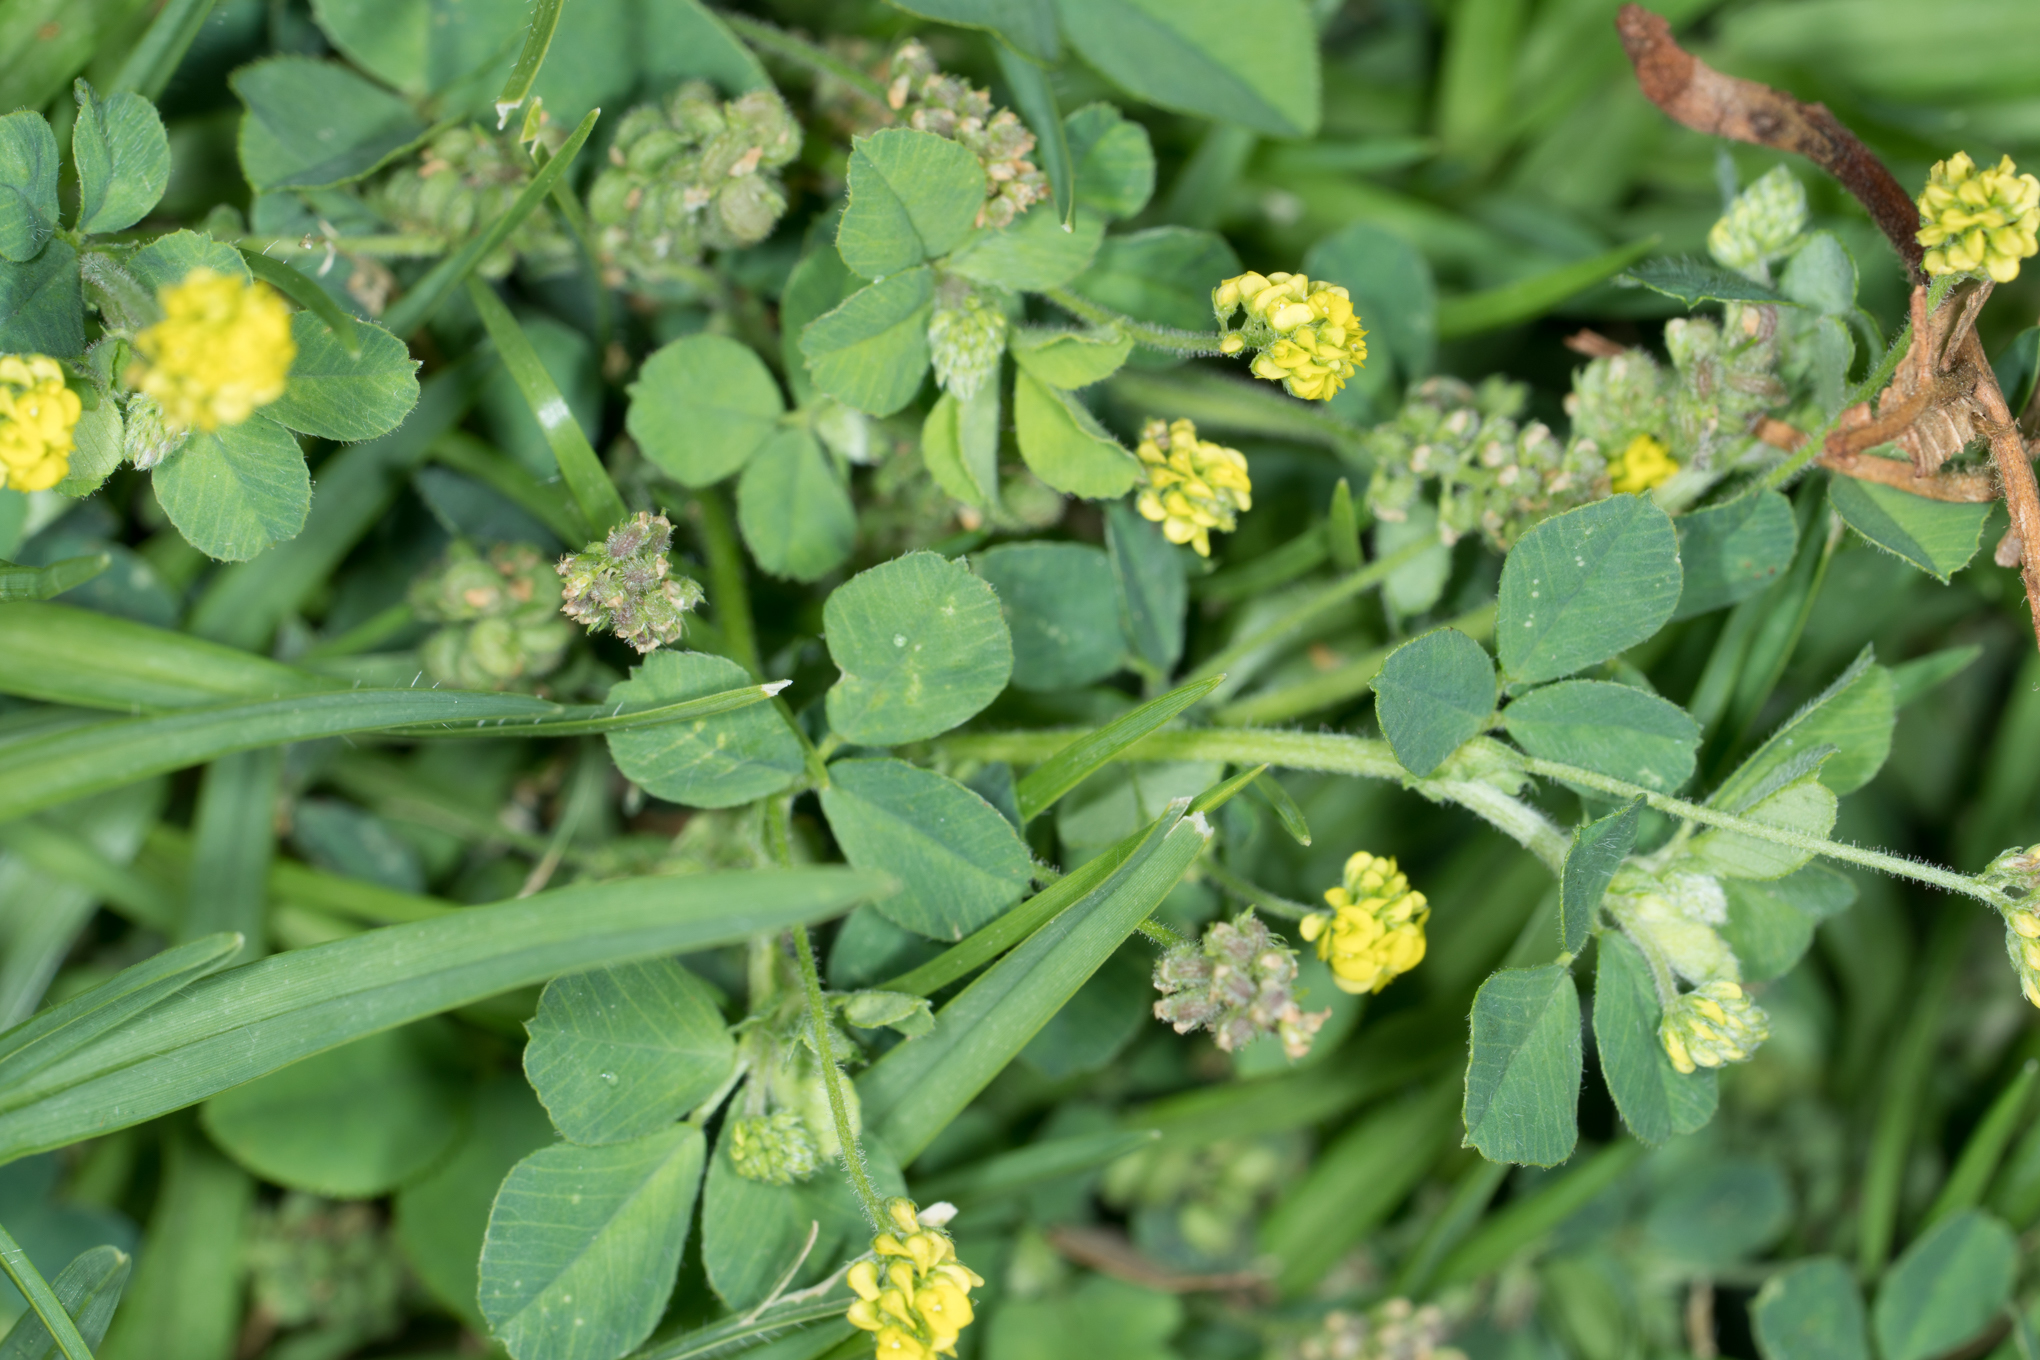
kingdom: Plantae
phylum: Tracheophyta
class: Magnoliopsida
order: Fabales
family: Fabaceae
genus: Medicago
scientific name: Medicago lupulina
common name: Black medick
